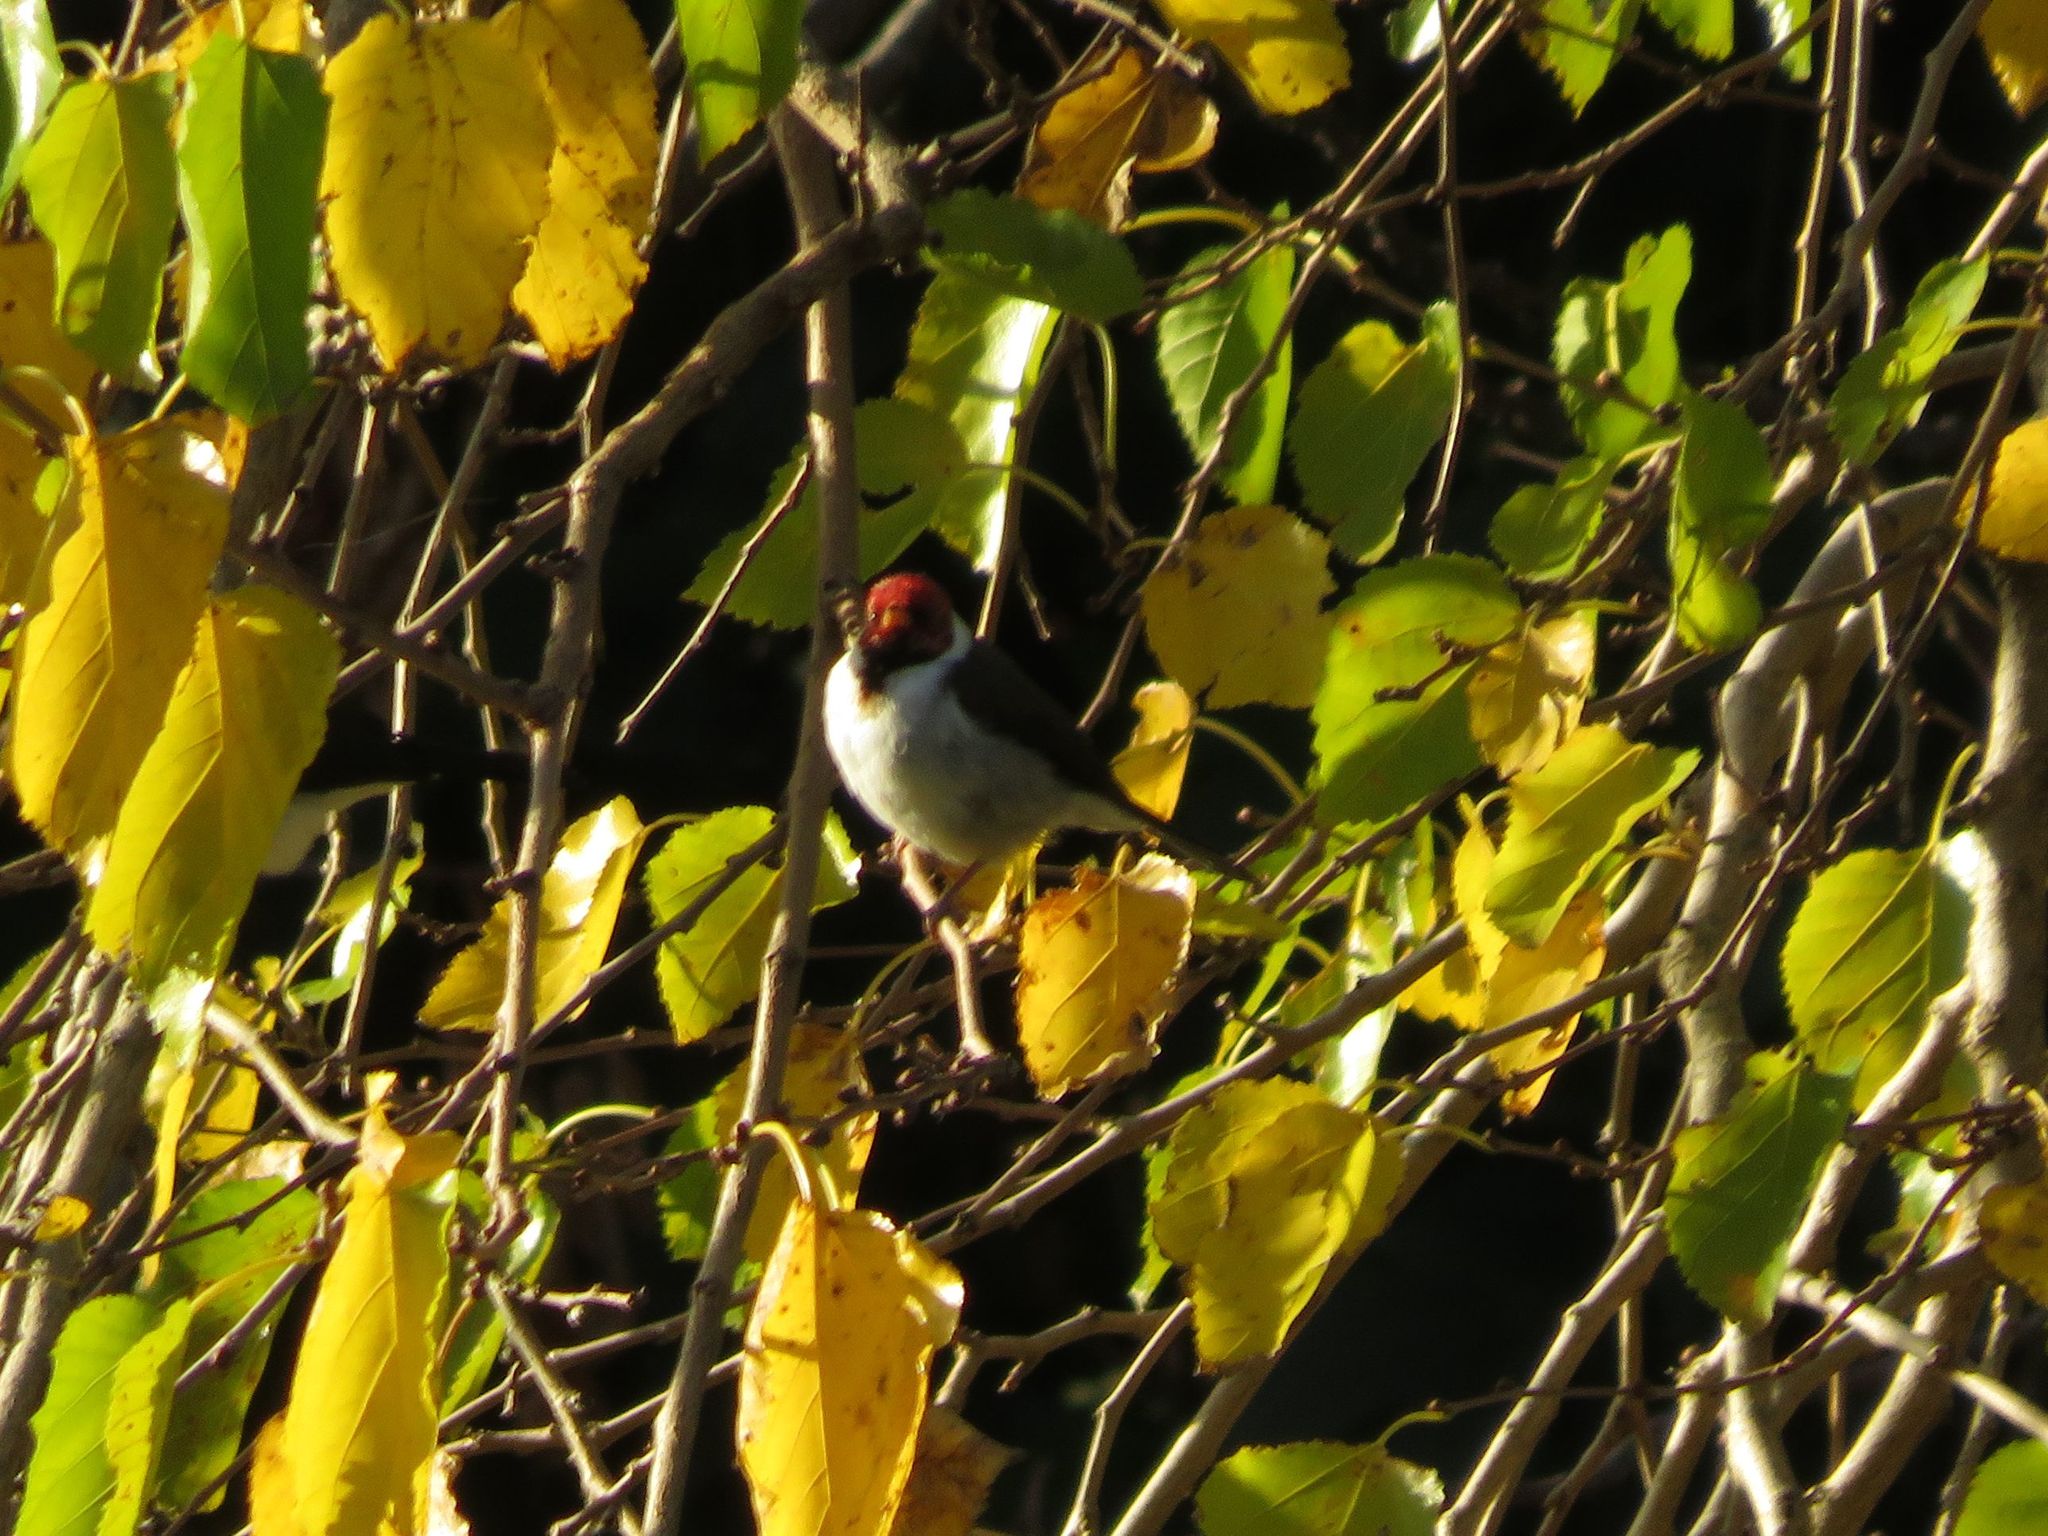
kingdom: Animalia
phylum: Chordata
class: Aves
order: Passeriformes
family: Thraupidae
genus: Paroaria
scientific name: Paroaria capitata
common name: Yellow-billed cardinal
